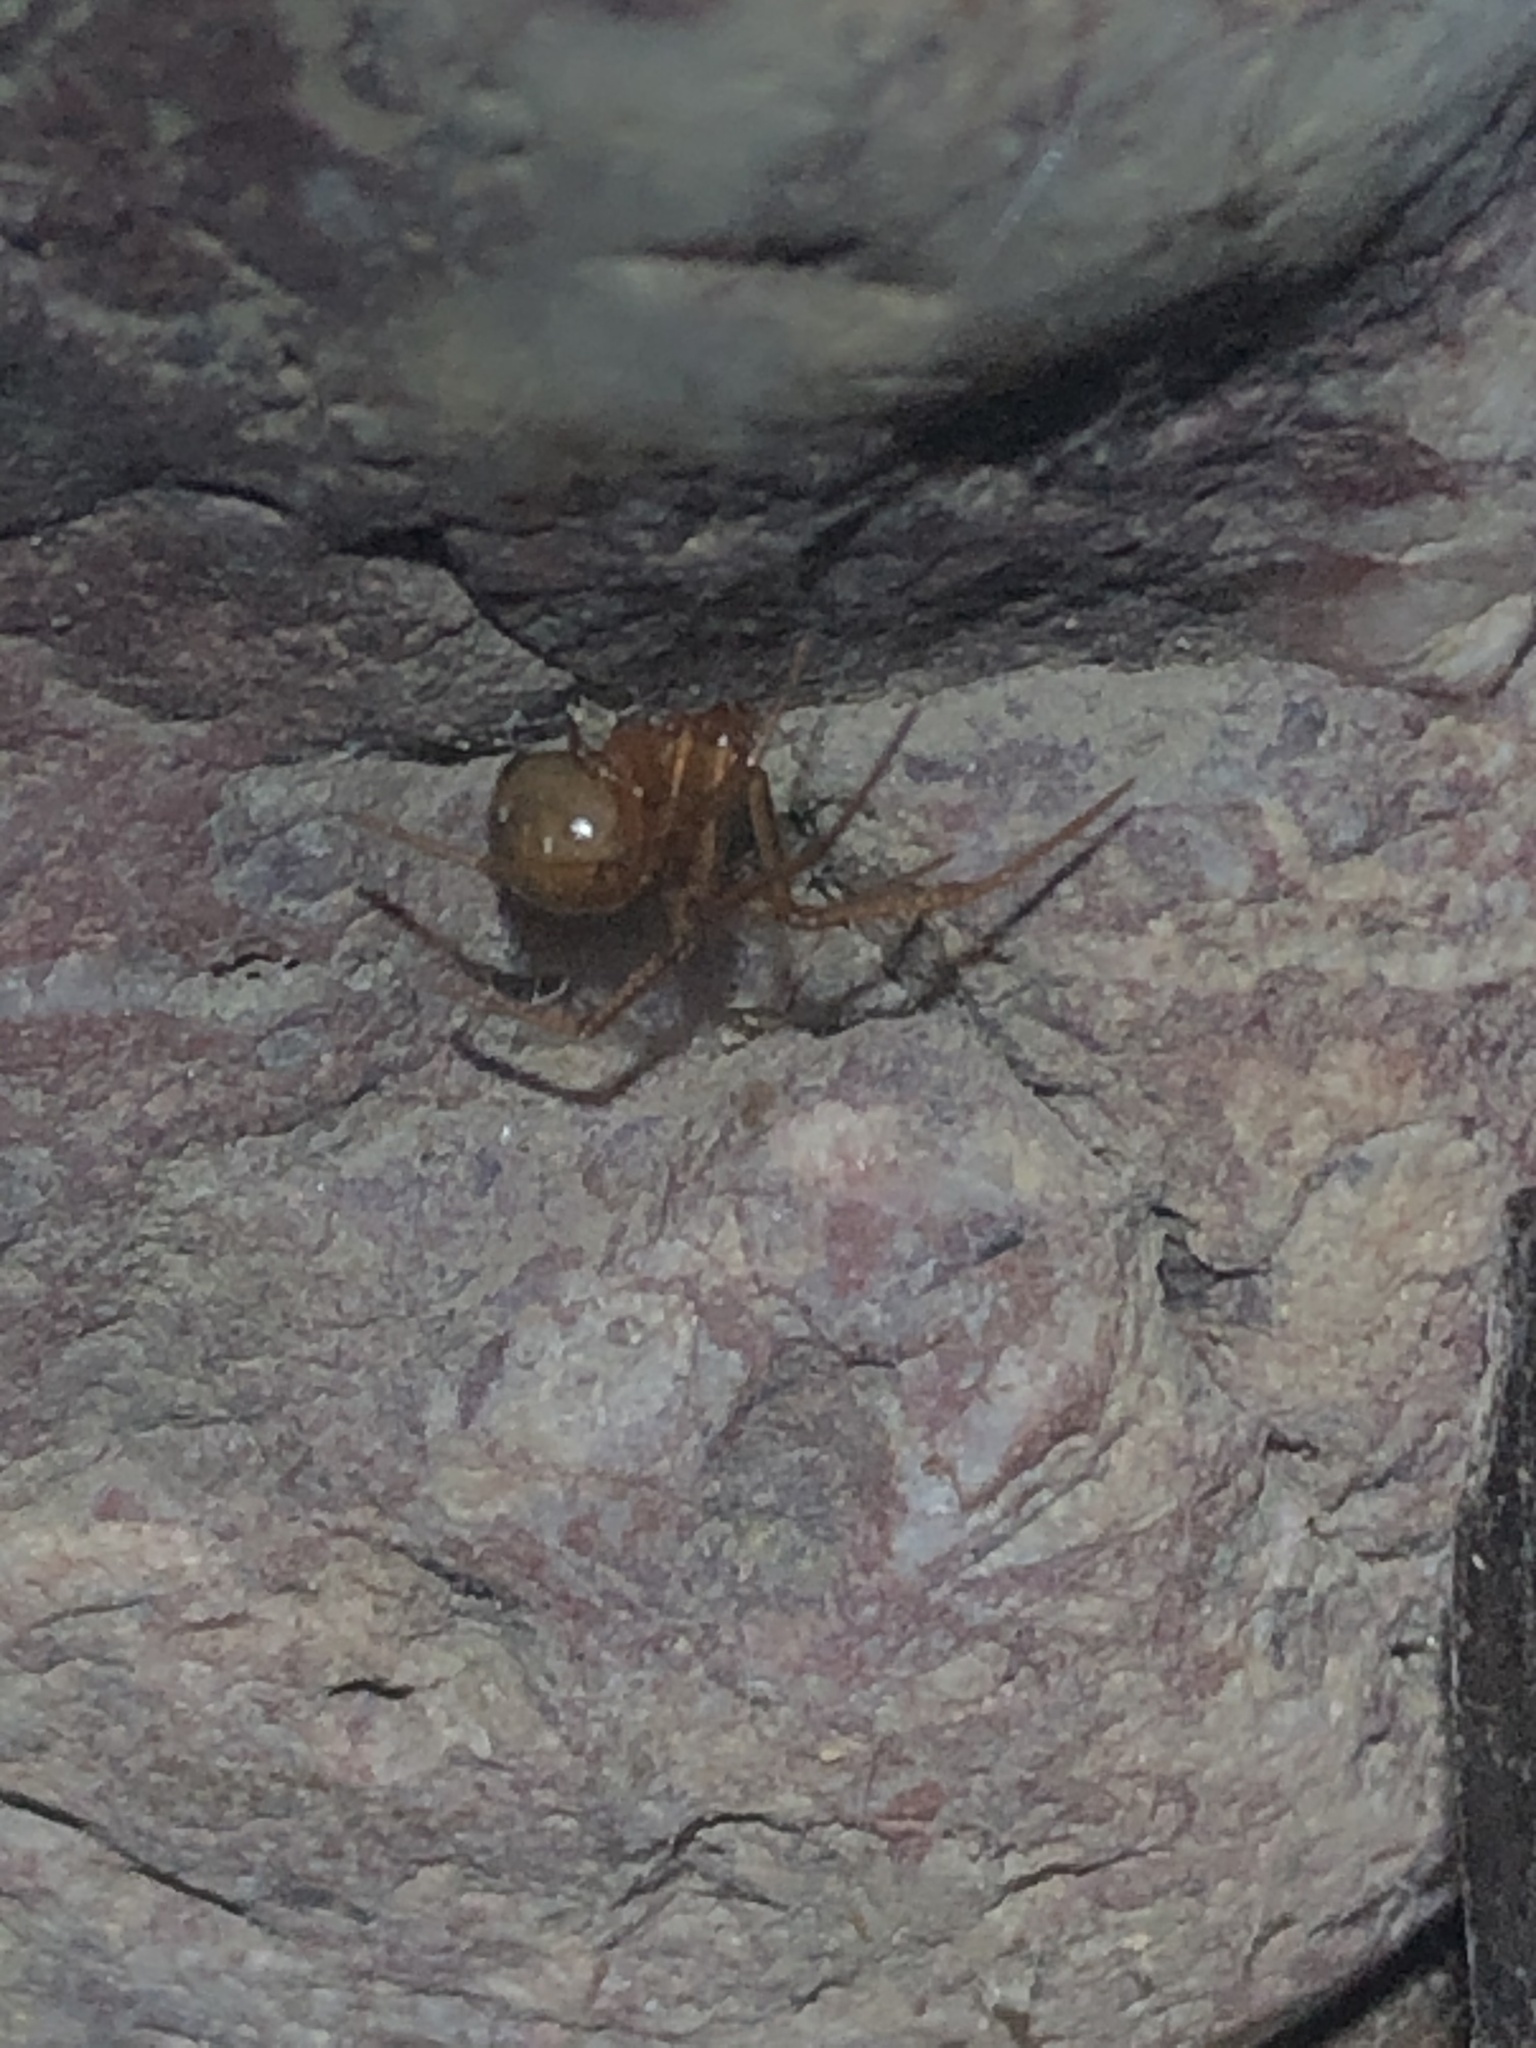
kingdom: Animalia
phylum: Arthropoda
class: Arachnida
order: Araneae
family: Theridiidae
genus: Nesticodes
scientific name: Nesticodes rufipes
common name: Cobweb spiders
